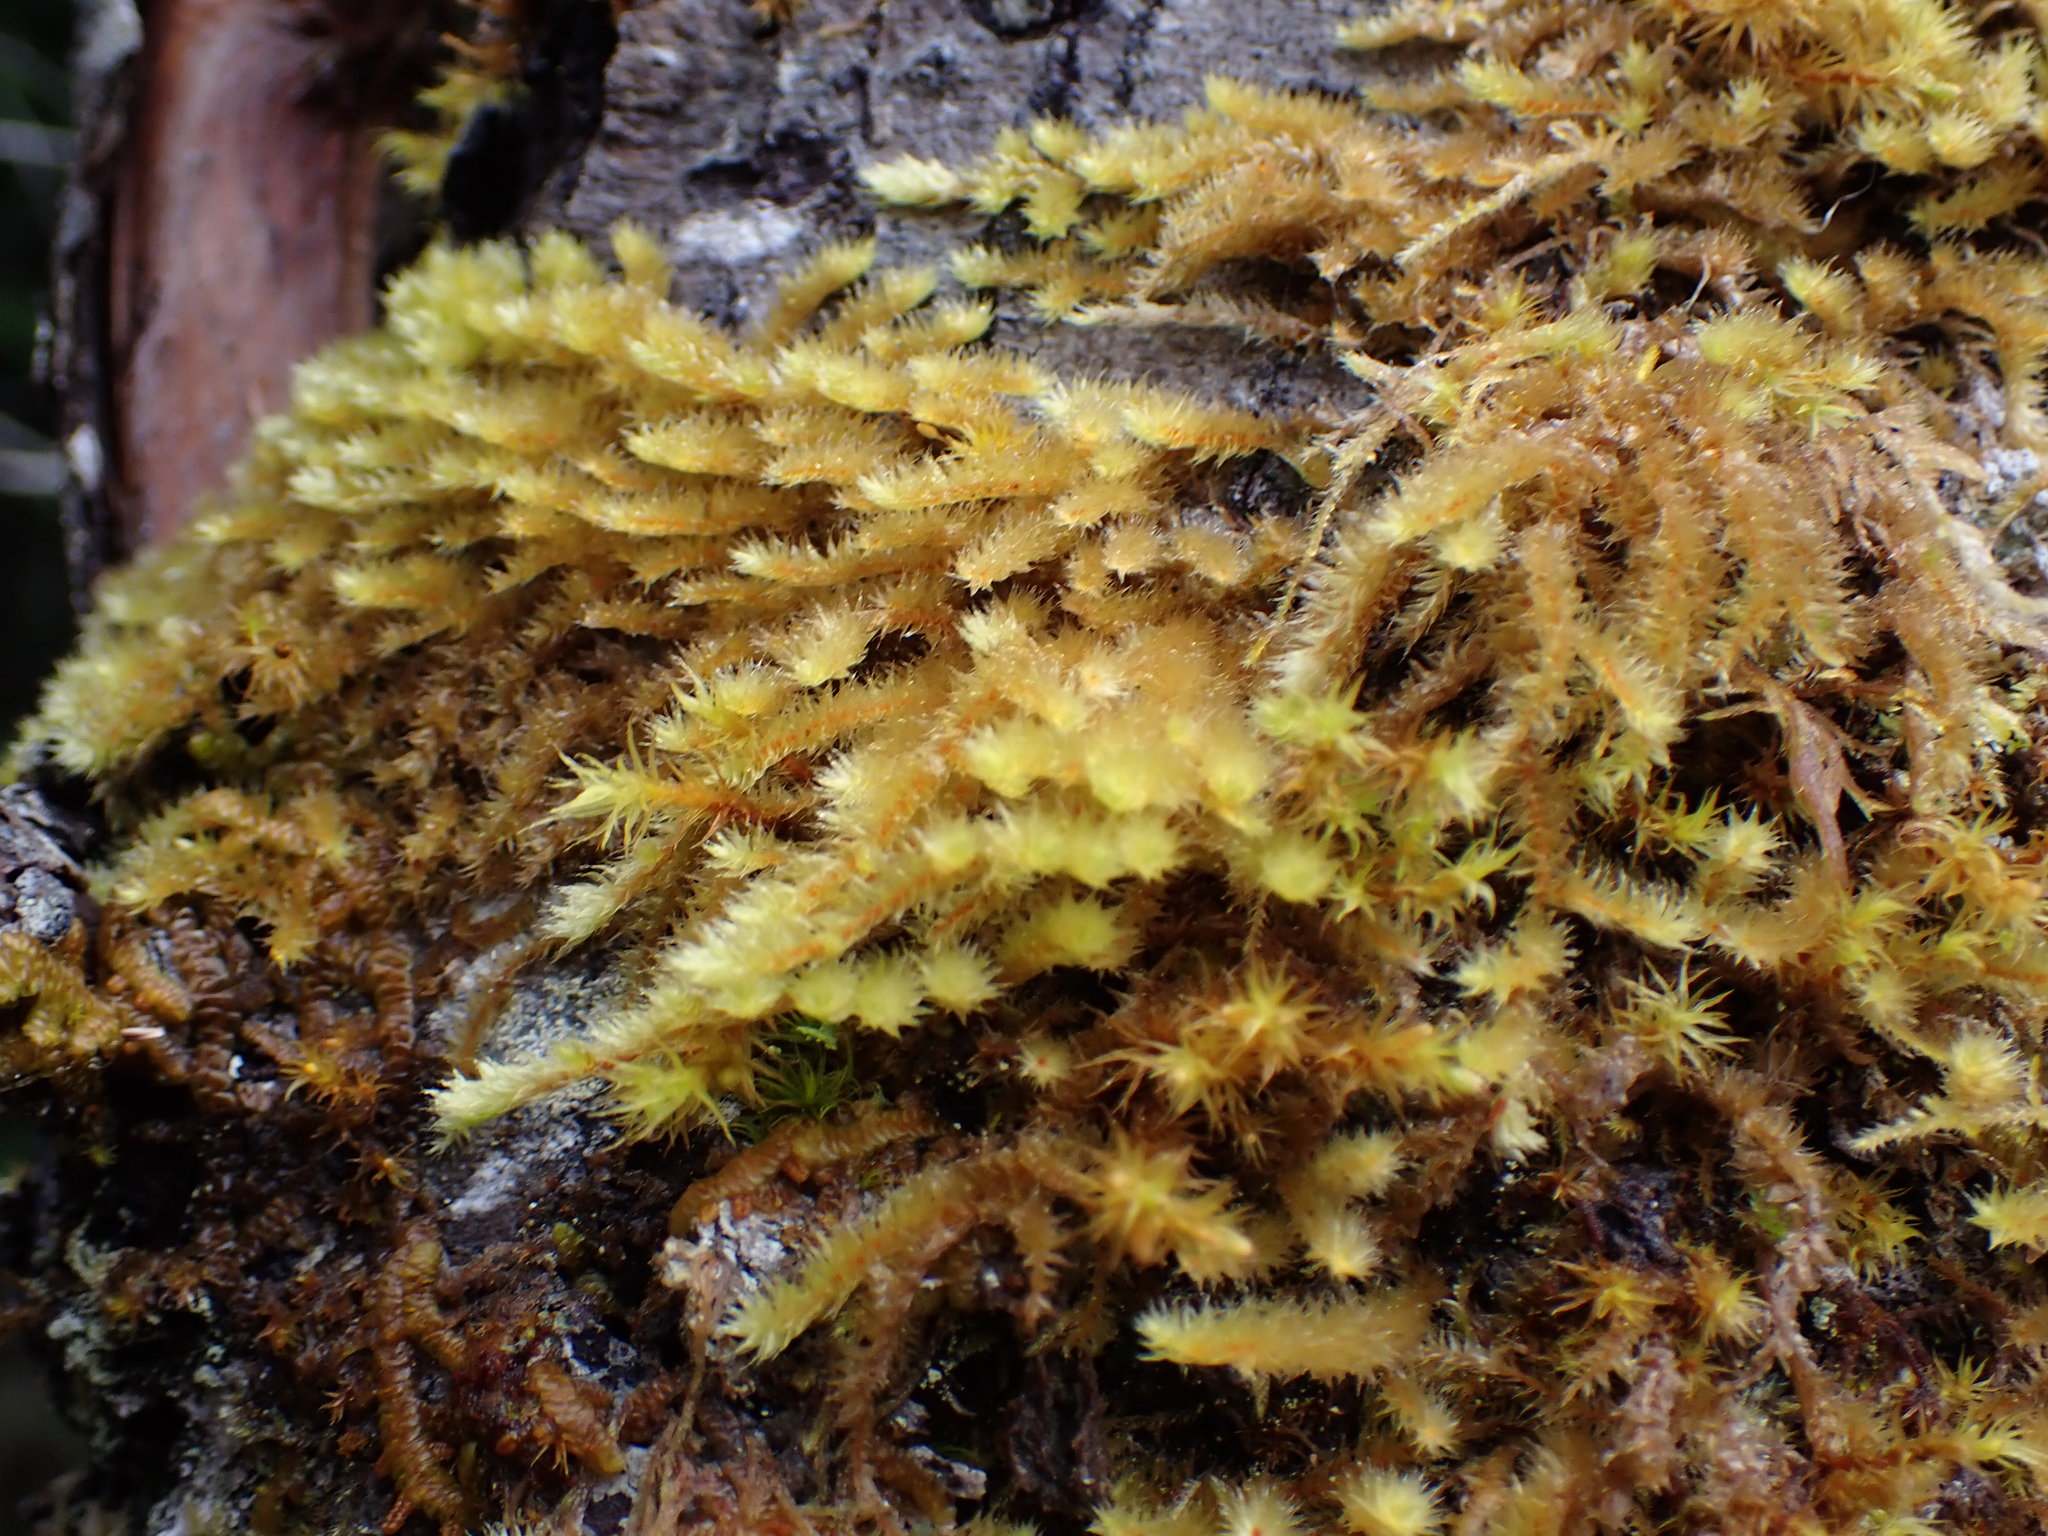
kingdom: Plantae
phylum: Bryophyta
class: Bryopsida
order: Hypnales
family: Antitrichiaceae
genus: Antitrichia
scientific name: Antitrichia curtipendula
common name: Pendulous wing-moss
